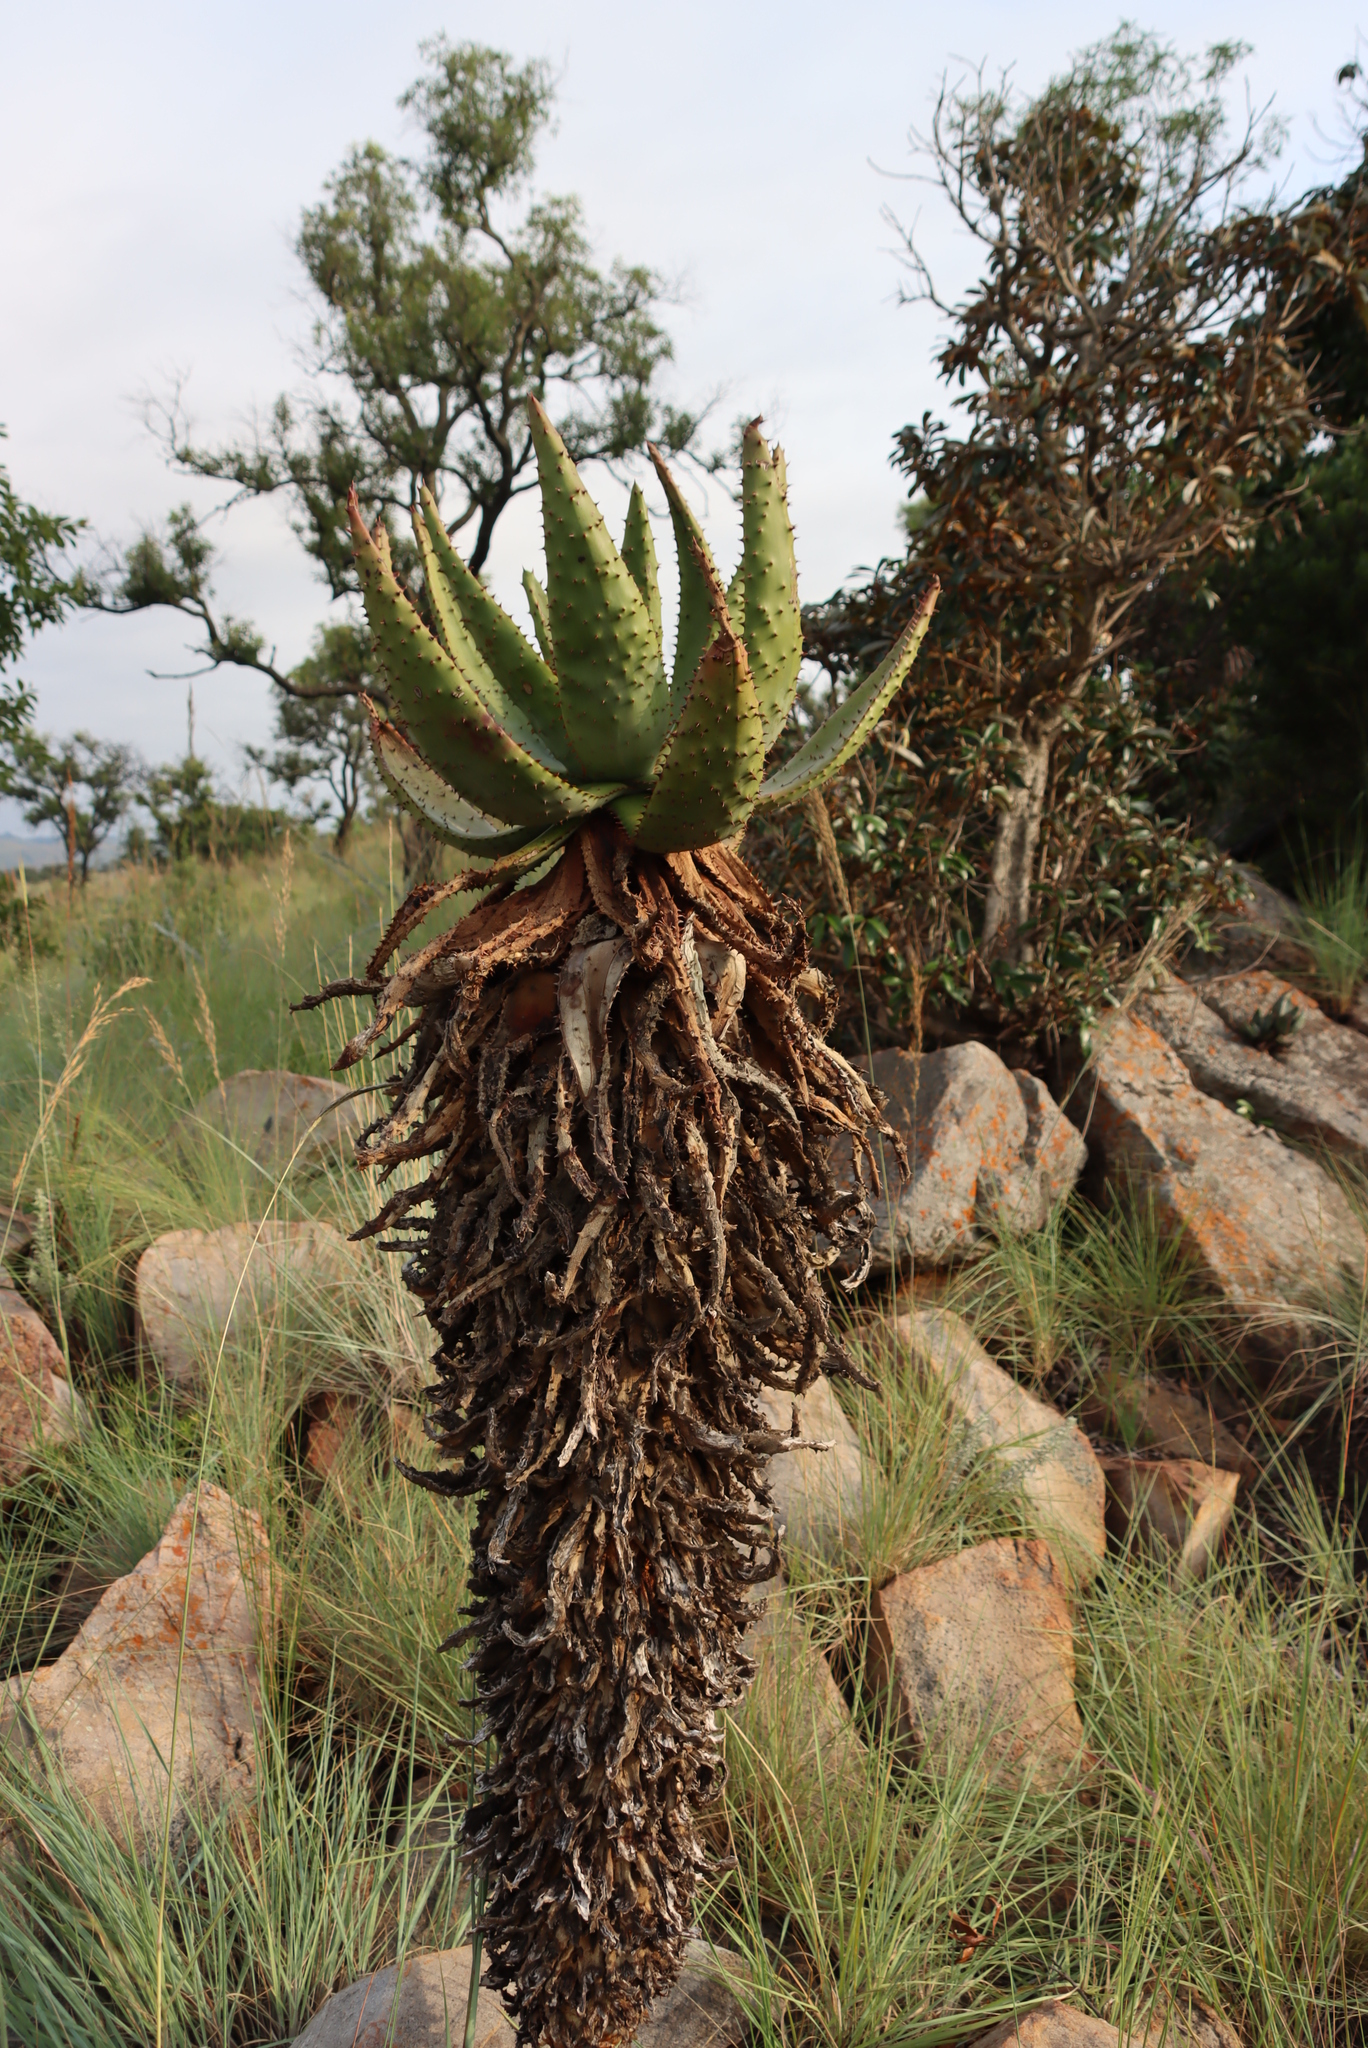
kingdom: Plantae
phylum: Tracheophyta
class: Liliopsida
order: Asparagales
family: Asphodelaceae
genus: Aloe
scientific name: Aloe marlothii
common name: Flat-flowered aloe
